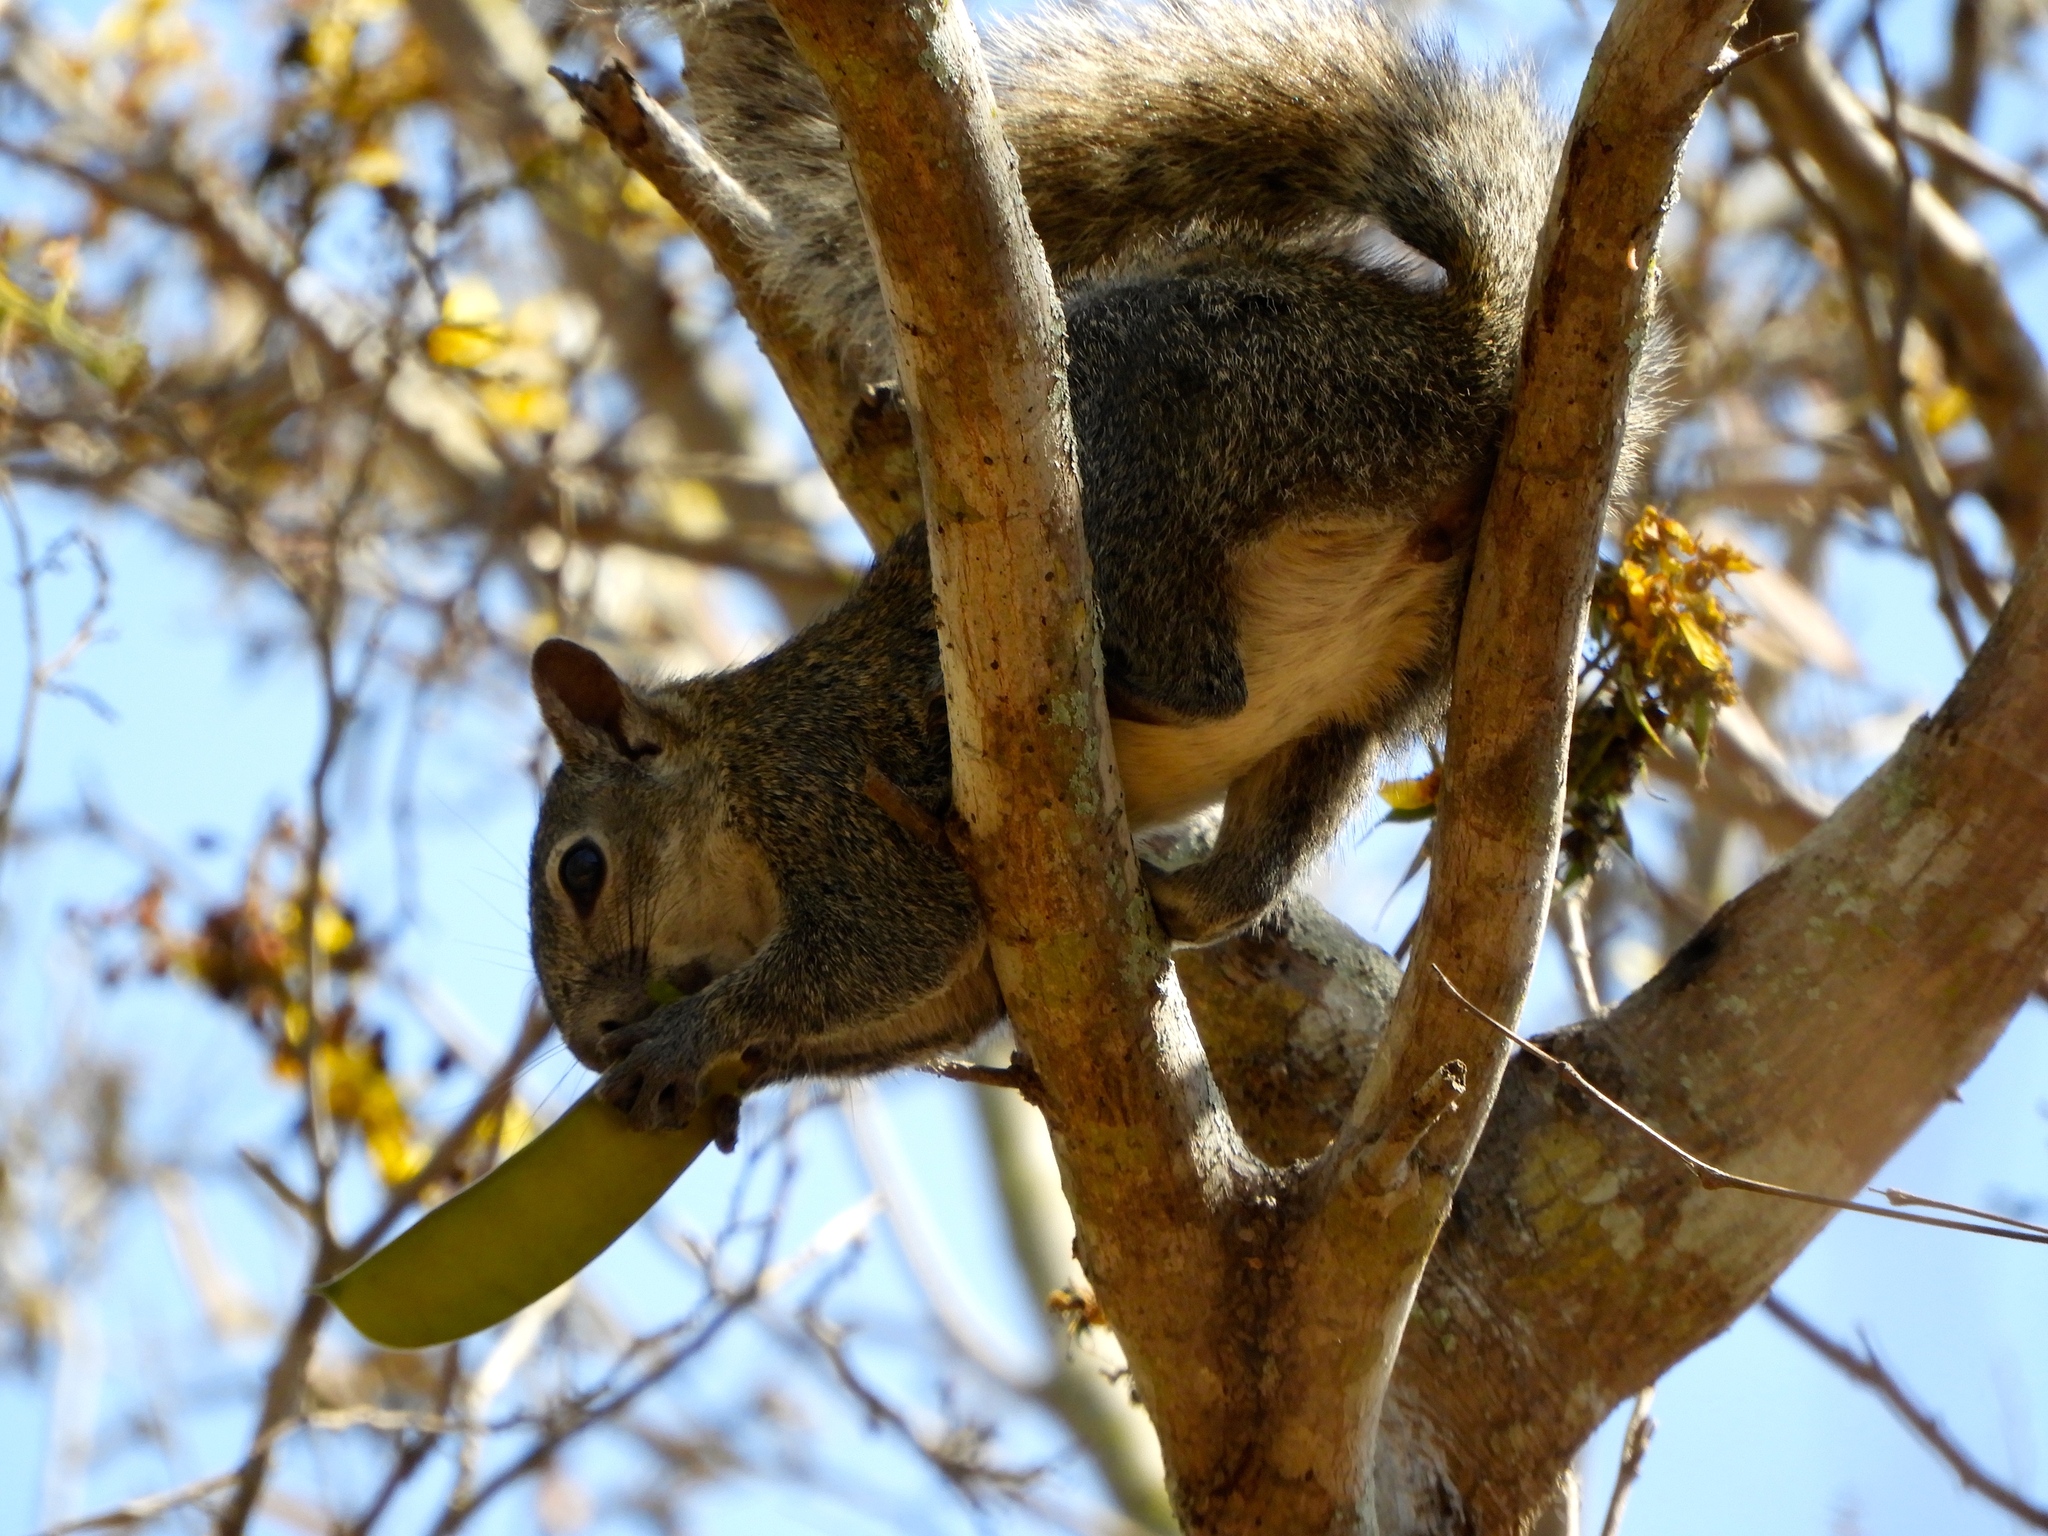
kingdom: Animalia
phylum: Chordata
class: Mammalia
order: Rodentia
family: Sciuridae
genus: Sciurus
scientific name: Sciurus colliaei
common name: Collie's squirrel
